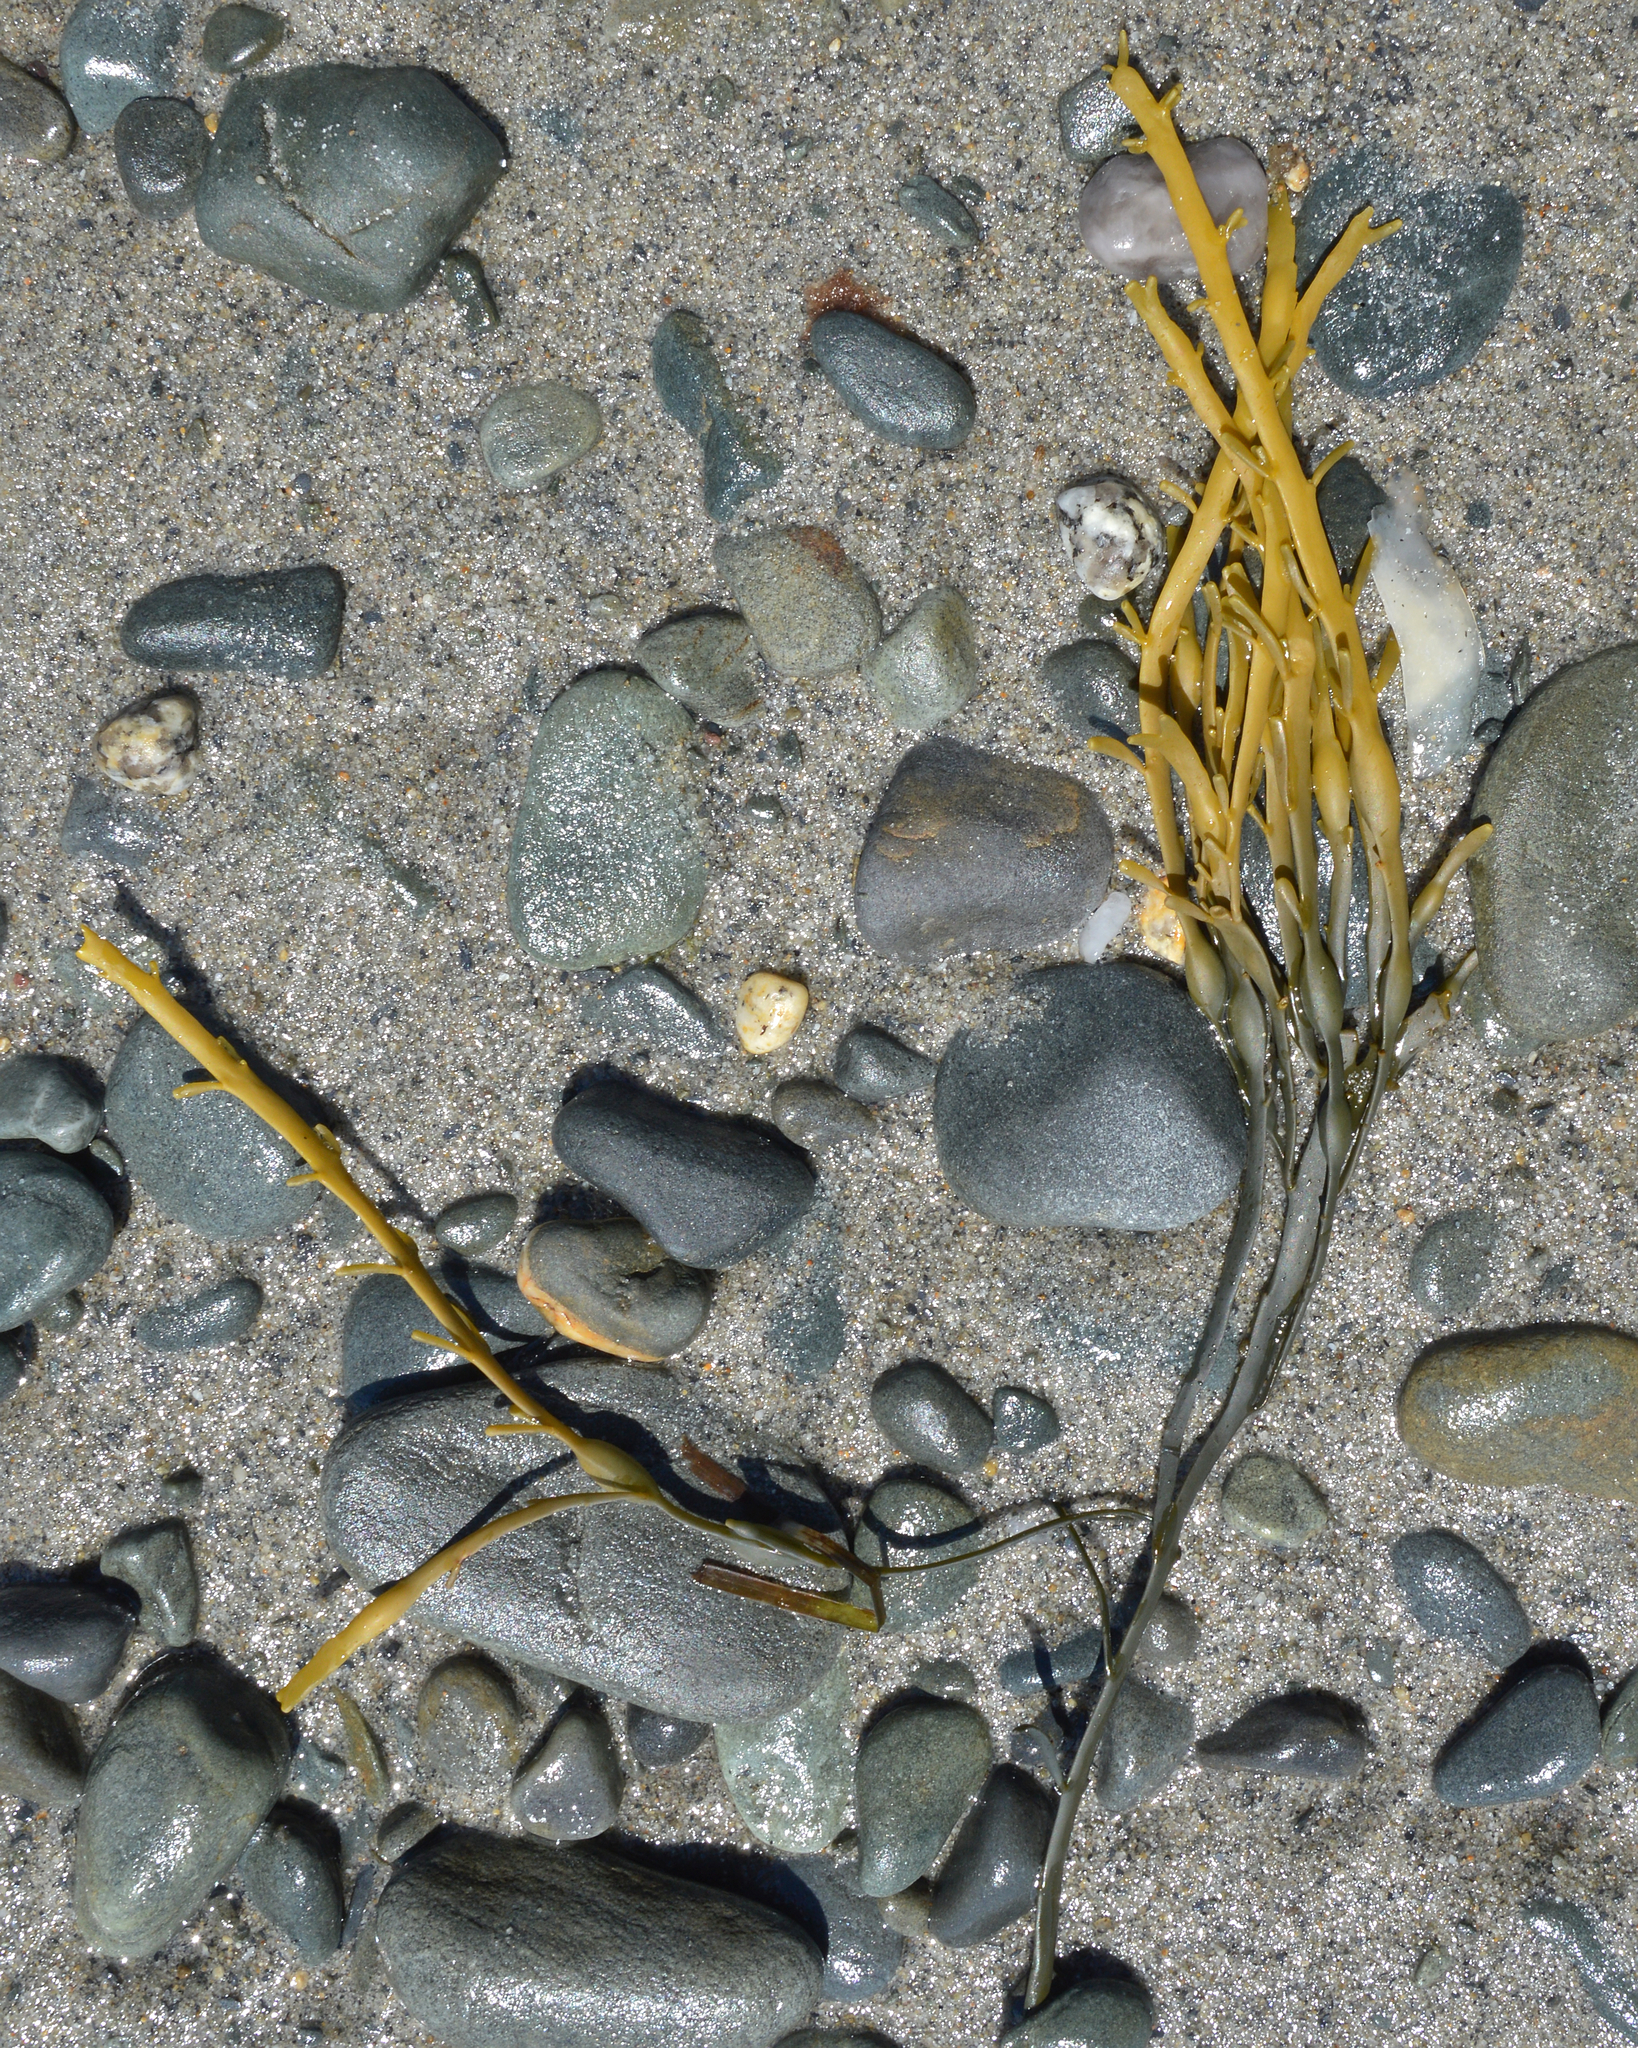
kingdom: Chromista
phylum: Ochrophyta
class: Phaeophyceae
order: Fucales
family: Fucaceae
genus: Ascophyllum
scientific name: Ascophyllum nodosum
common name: Knotted wrack
